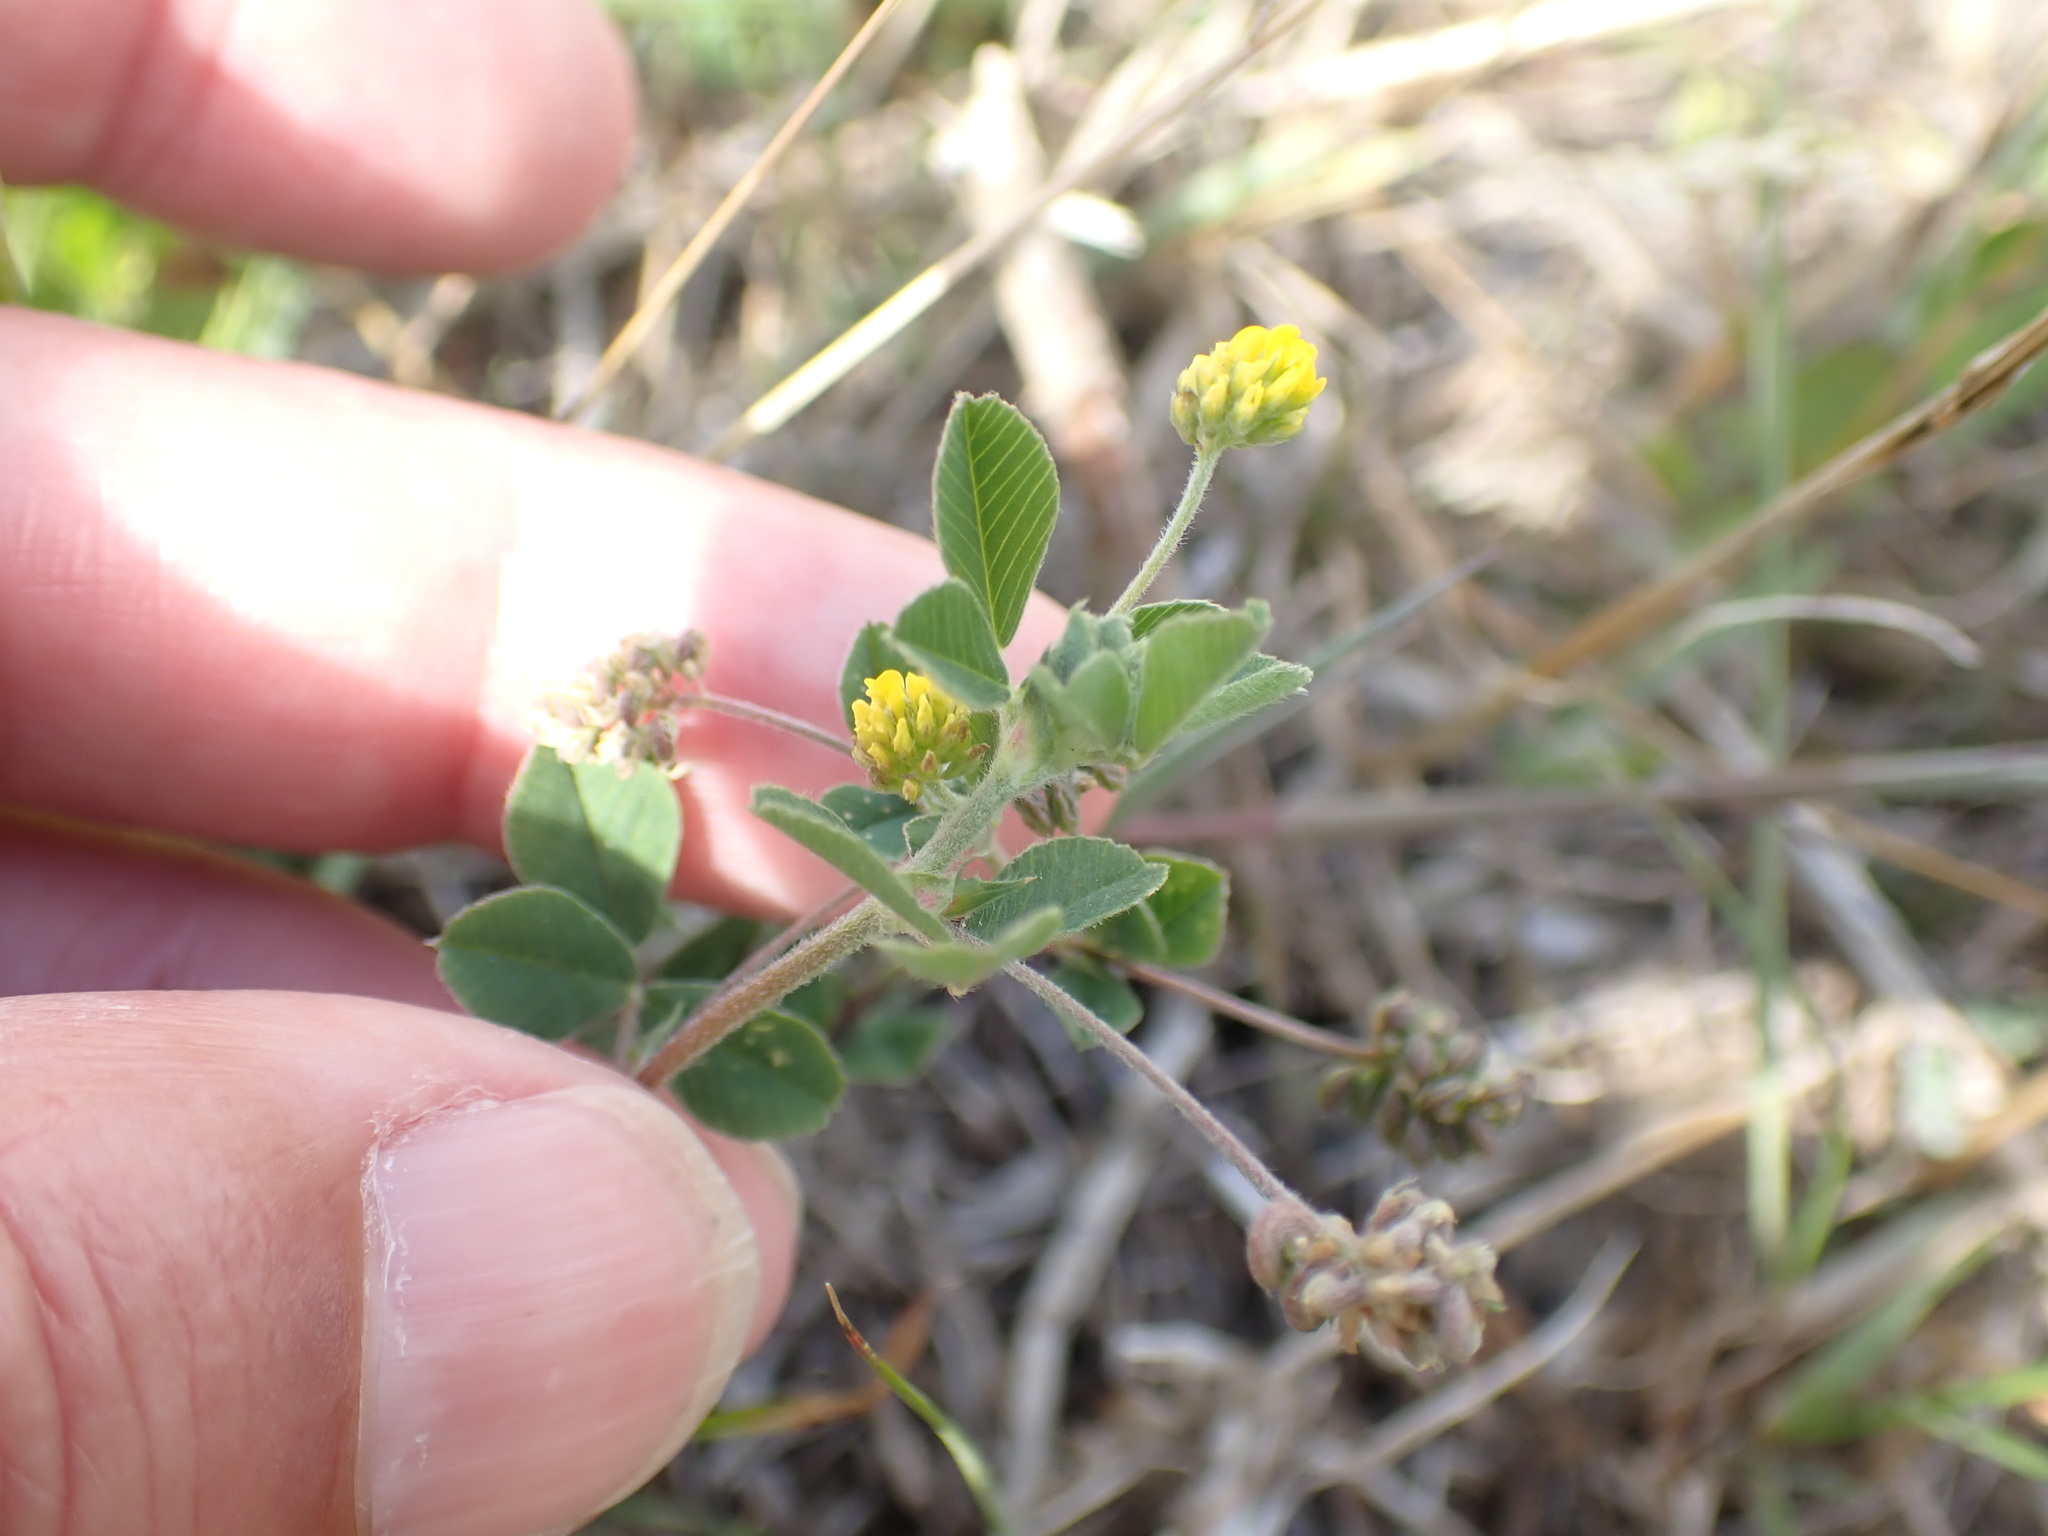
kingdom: Plantae
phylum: Tracheophyta
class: Magnoliopsida
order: Fabales
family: Fabaceae
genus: Medicago
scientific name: Medicago lupulina
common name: Black medick
